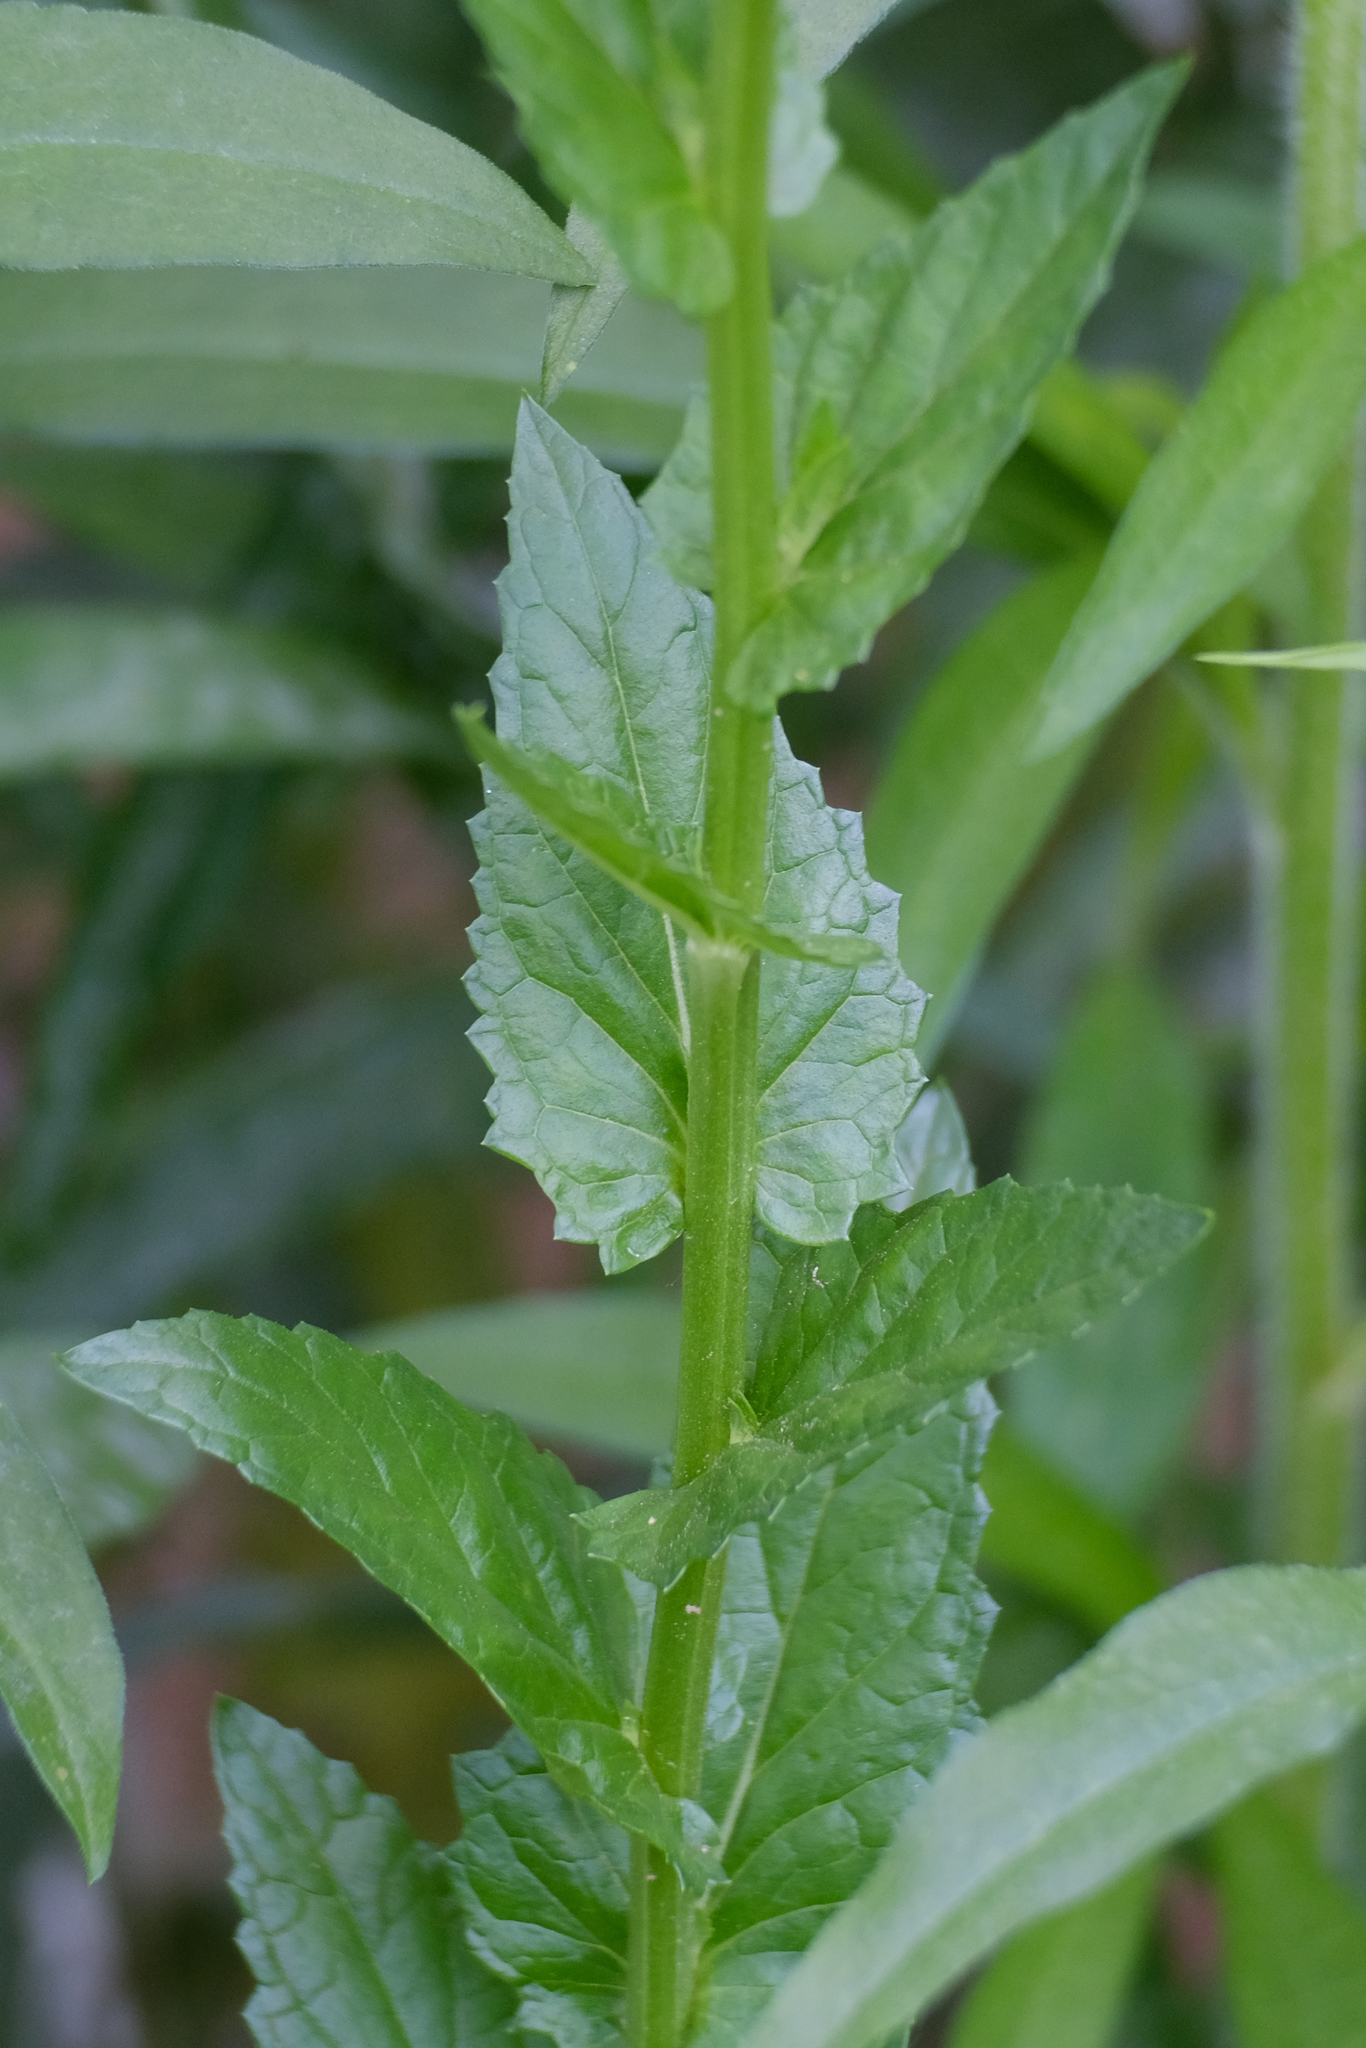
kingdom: Plantae
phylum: Tracheophyta
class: Magnoliopsida
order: Lamiales
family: Scrophulariaceae
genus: Verbascum
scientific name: Verbascum blattaria
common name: Moth mullein
